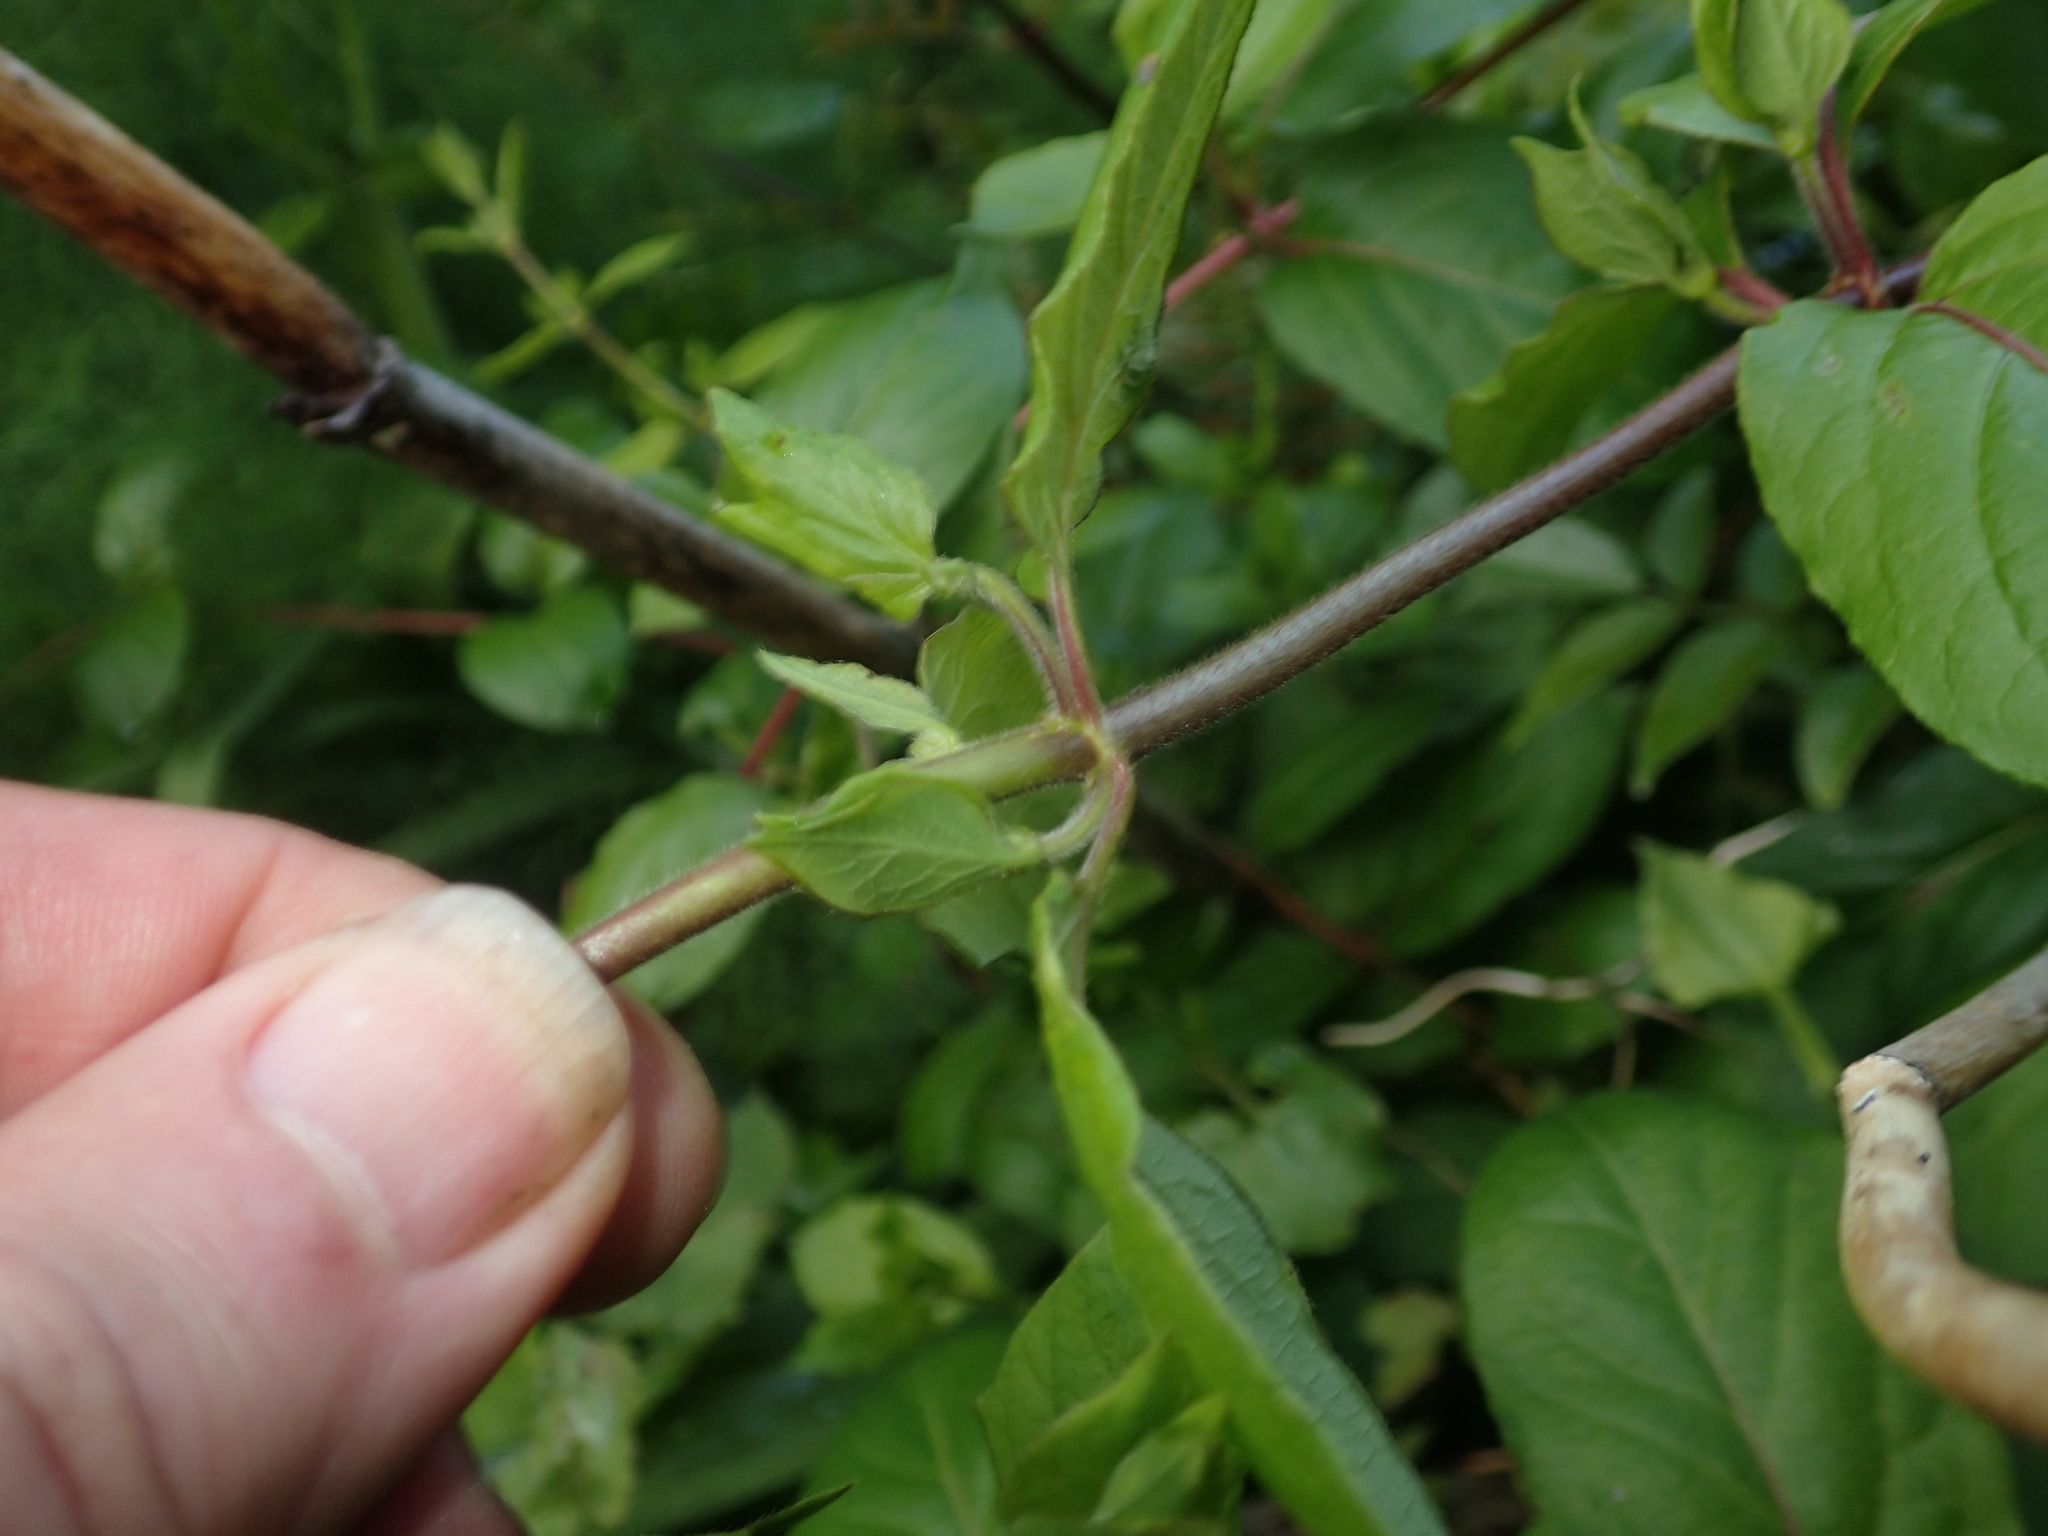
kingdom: Plantae
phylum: Tracheophyta
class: Magnoliopsida
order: Dipsacales
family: Caprifoliaceae
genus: Lonicera
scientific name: Lonicera japonica
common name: Japanese honeysuckle
